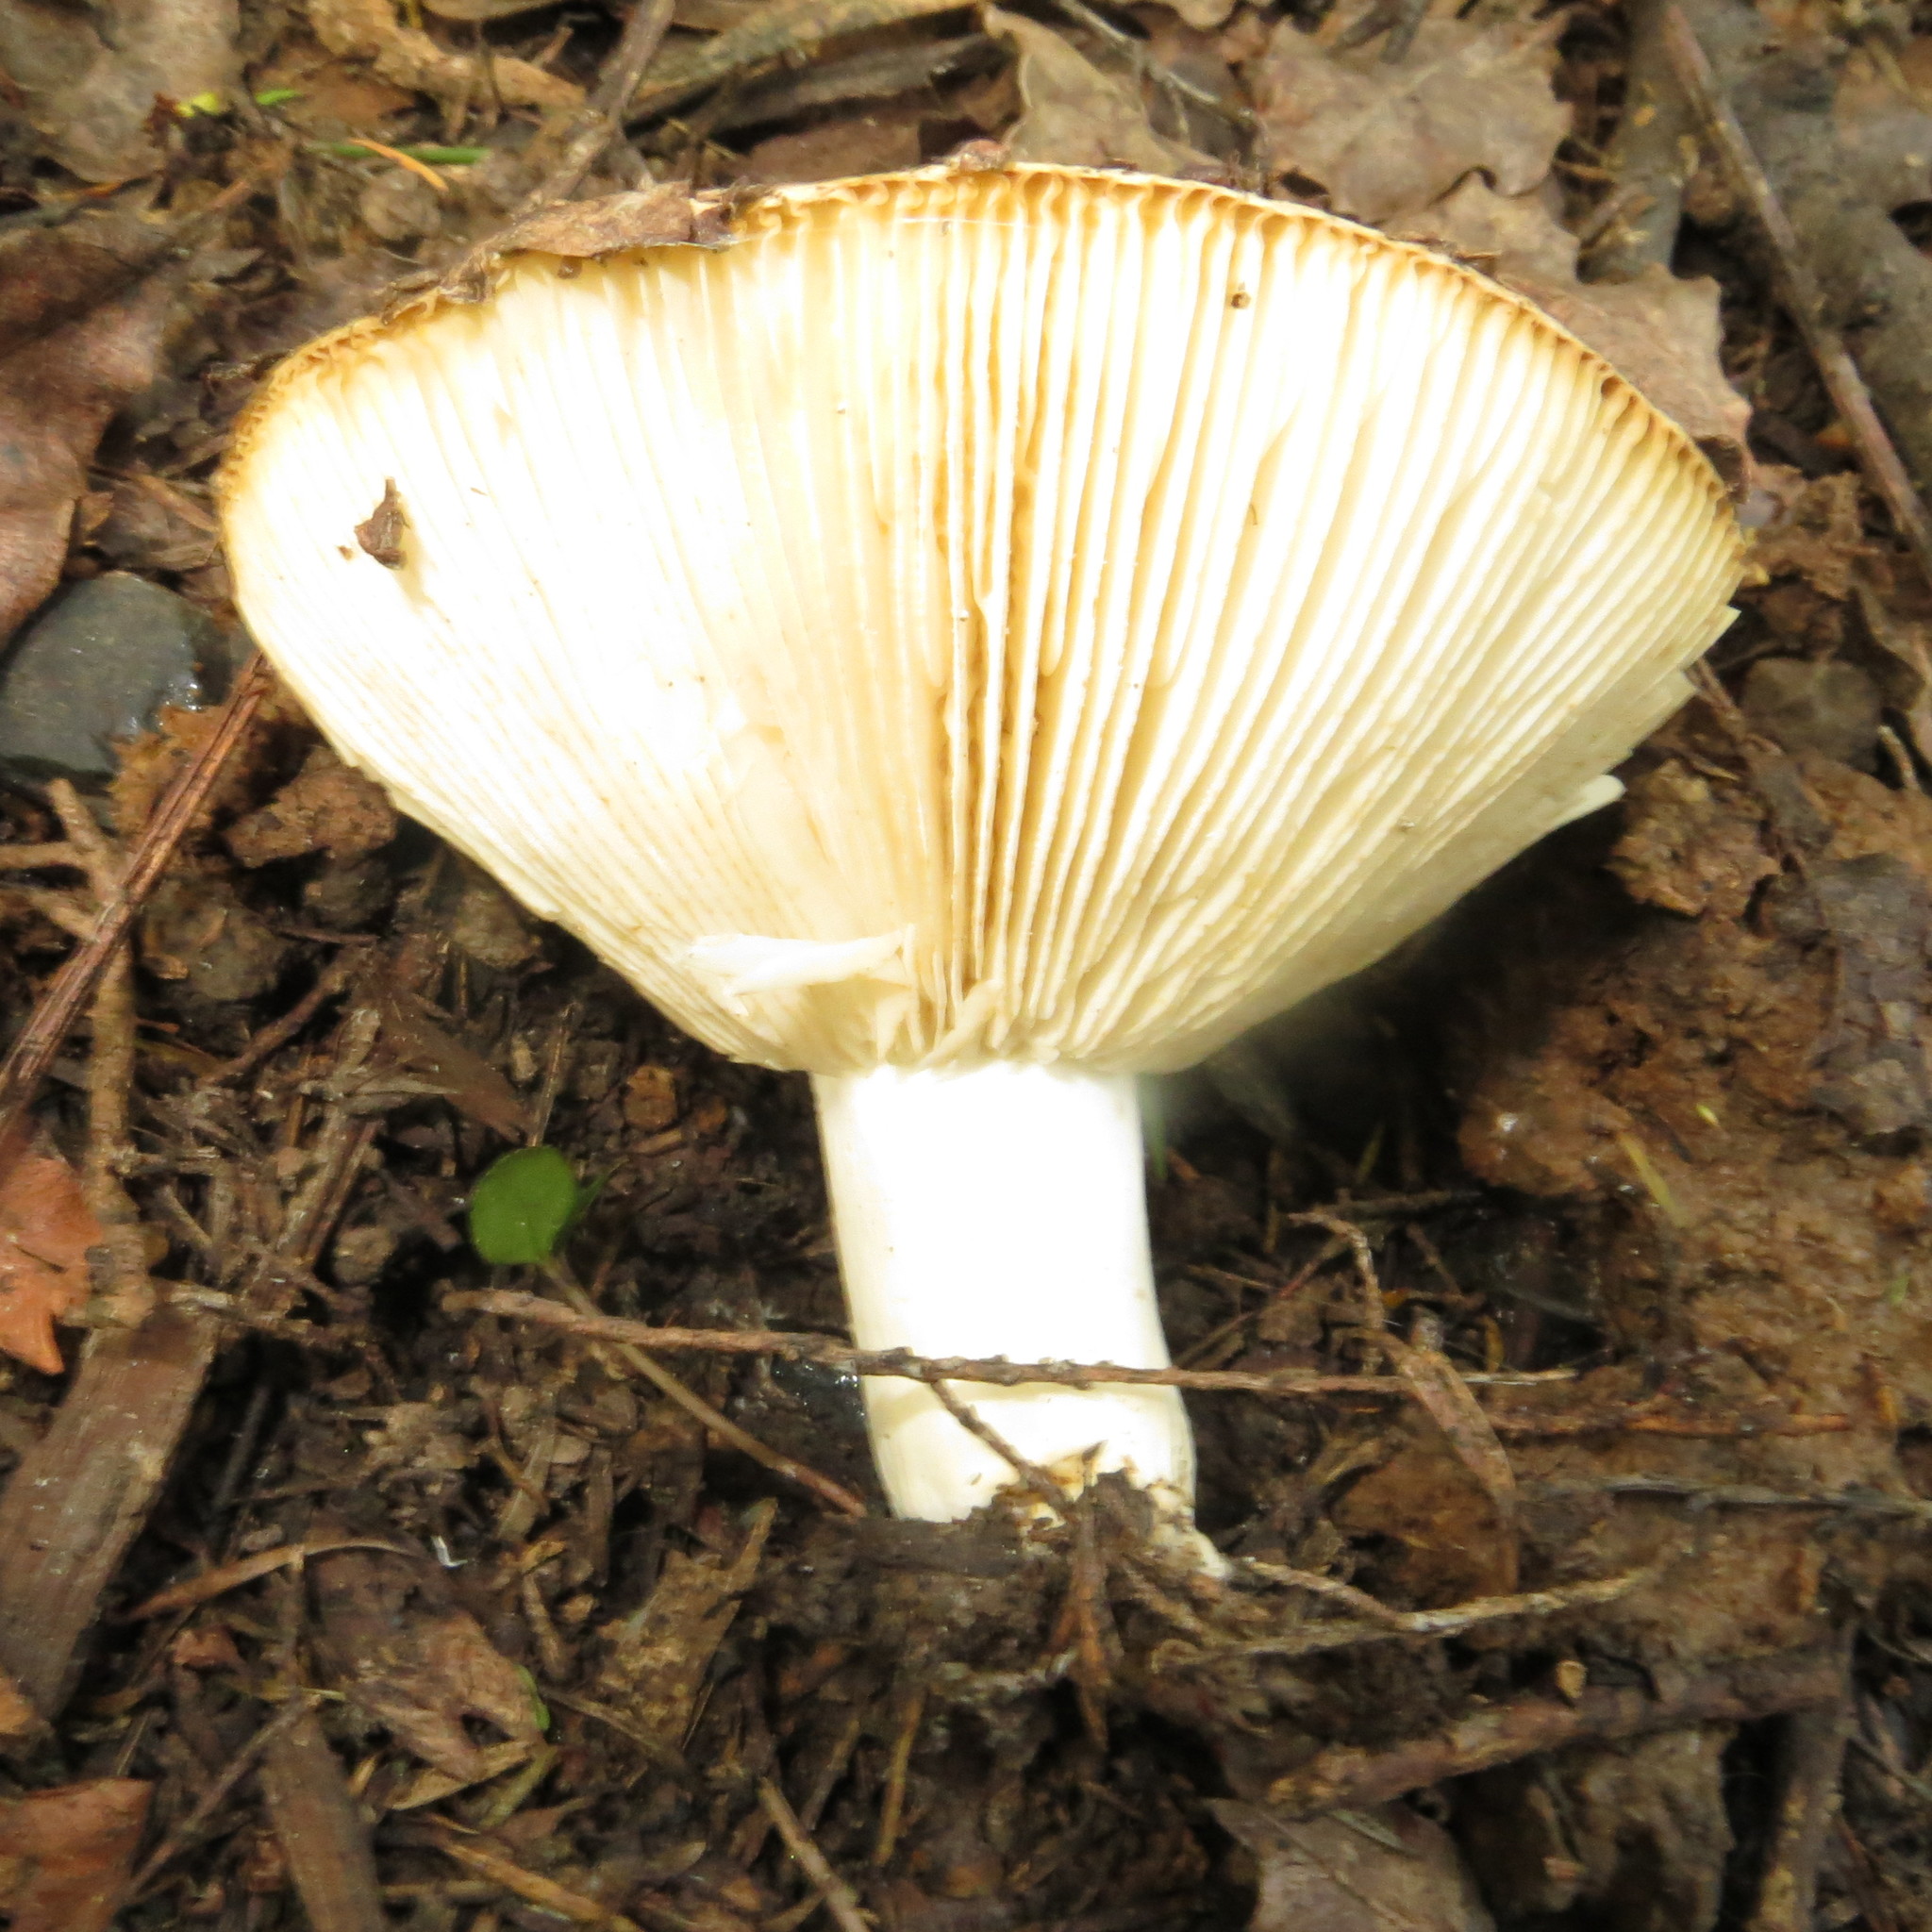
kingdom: Fungi
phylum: Basidiomycota
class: Agaricomycetes
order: Russulales
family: Russulaceae
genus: Russula
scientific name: Russula allochroa
